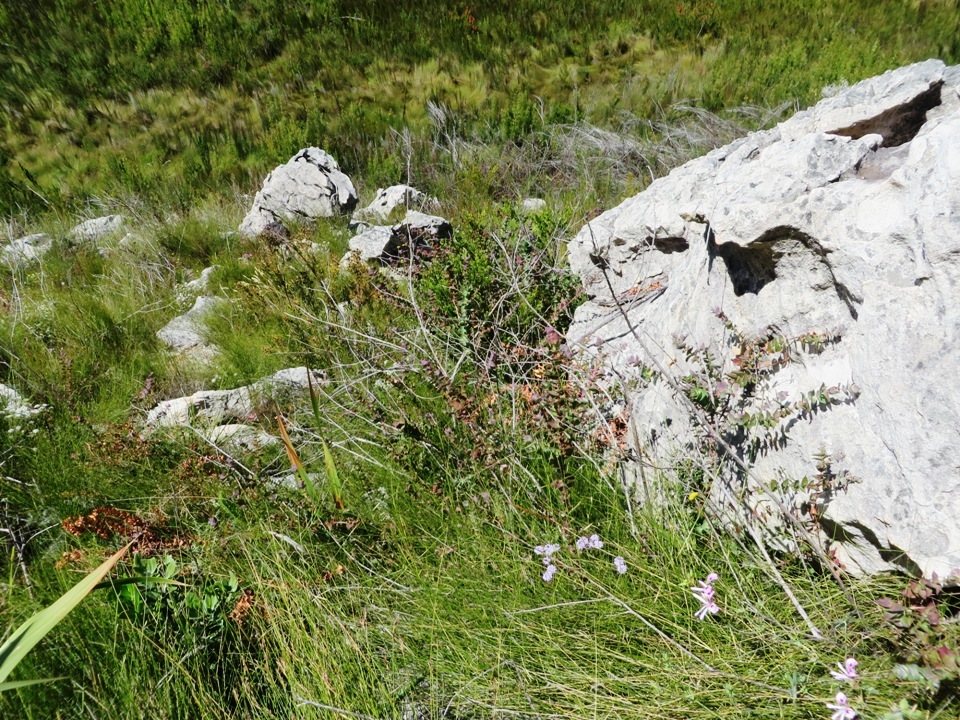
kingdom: Plantae
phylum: Tracheophyta
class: Magnoliopsida
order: Rosales
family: Rosaceae
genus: Cliffortia
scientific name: Cliffortia virgata
